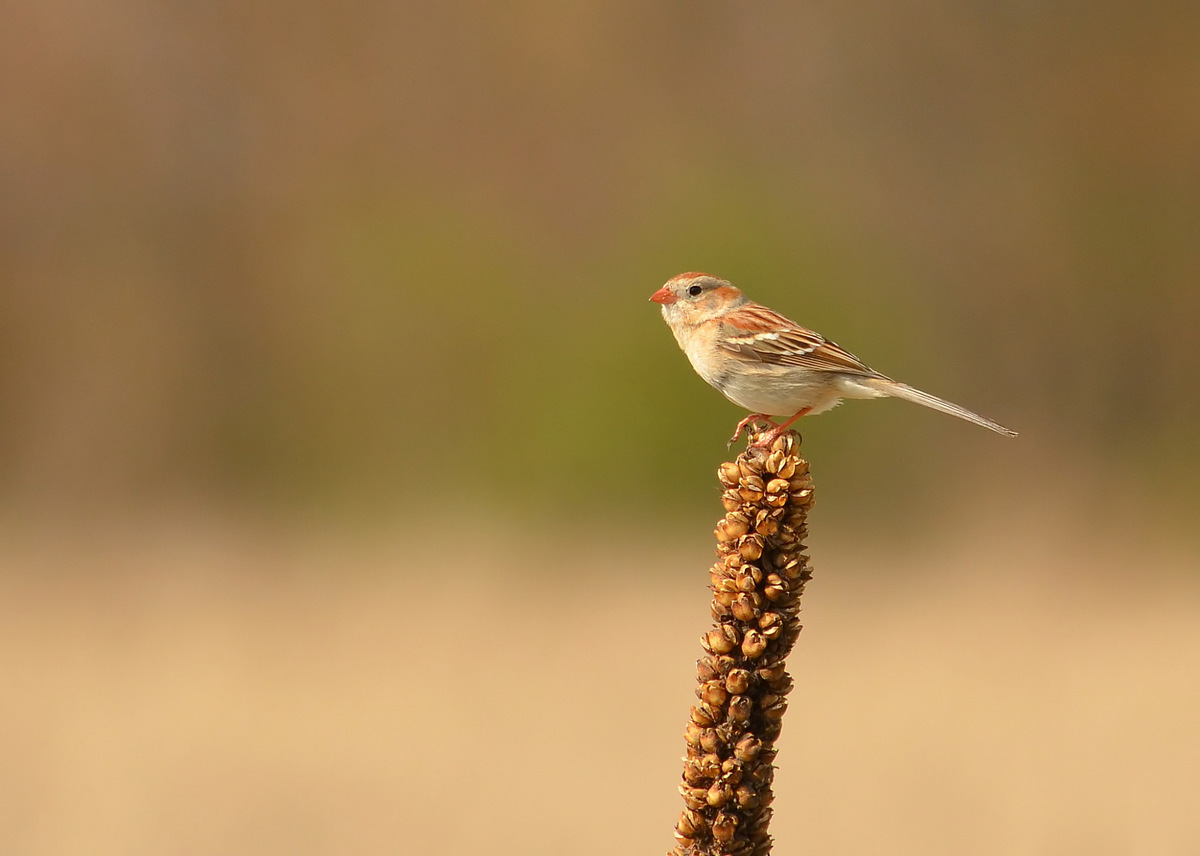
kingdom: Animalia
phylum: Chordata
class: Aves
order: Passeriformes
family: Passerellidae
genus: Spizella
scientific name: Spizella pusilla
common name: Field sparrow
